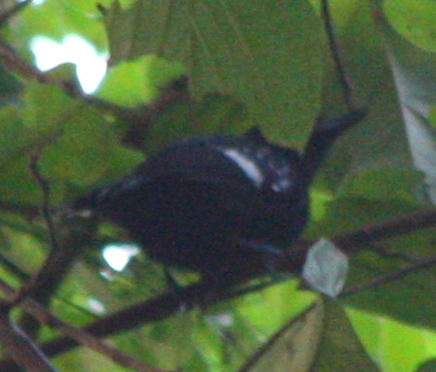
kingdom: Animalia
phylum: Chordata
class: Aves
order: Passeriformes
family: Thamnophilidae
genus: Microrhopias
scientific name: Microrhopias quixensis
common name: Dot-winged antwren
